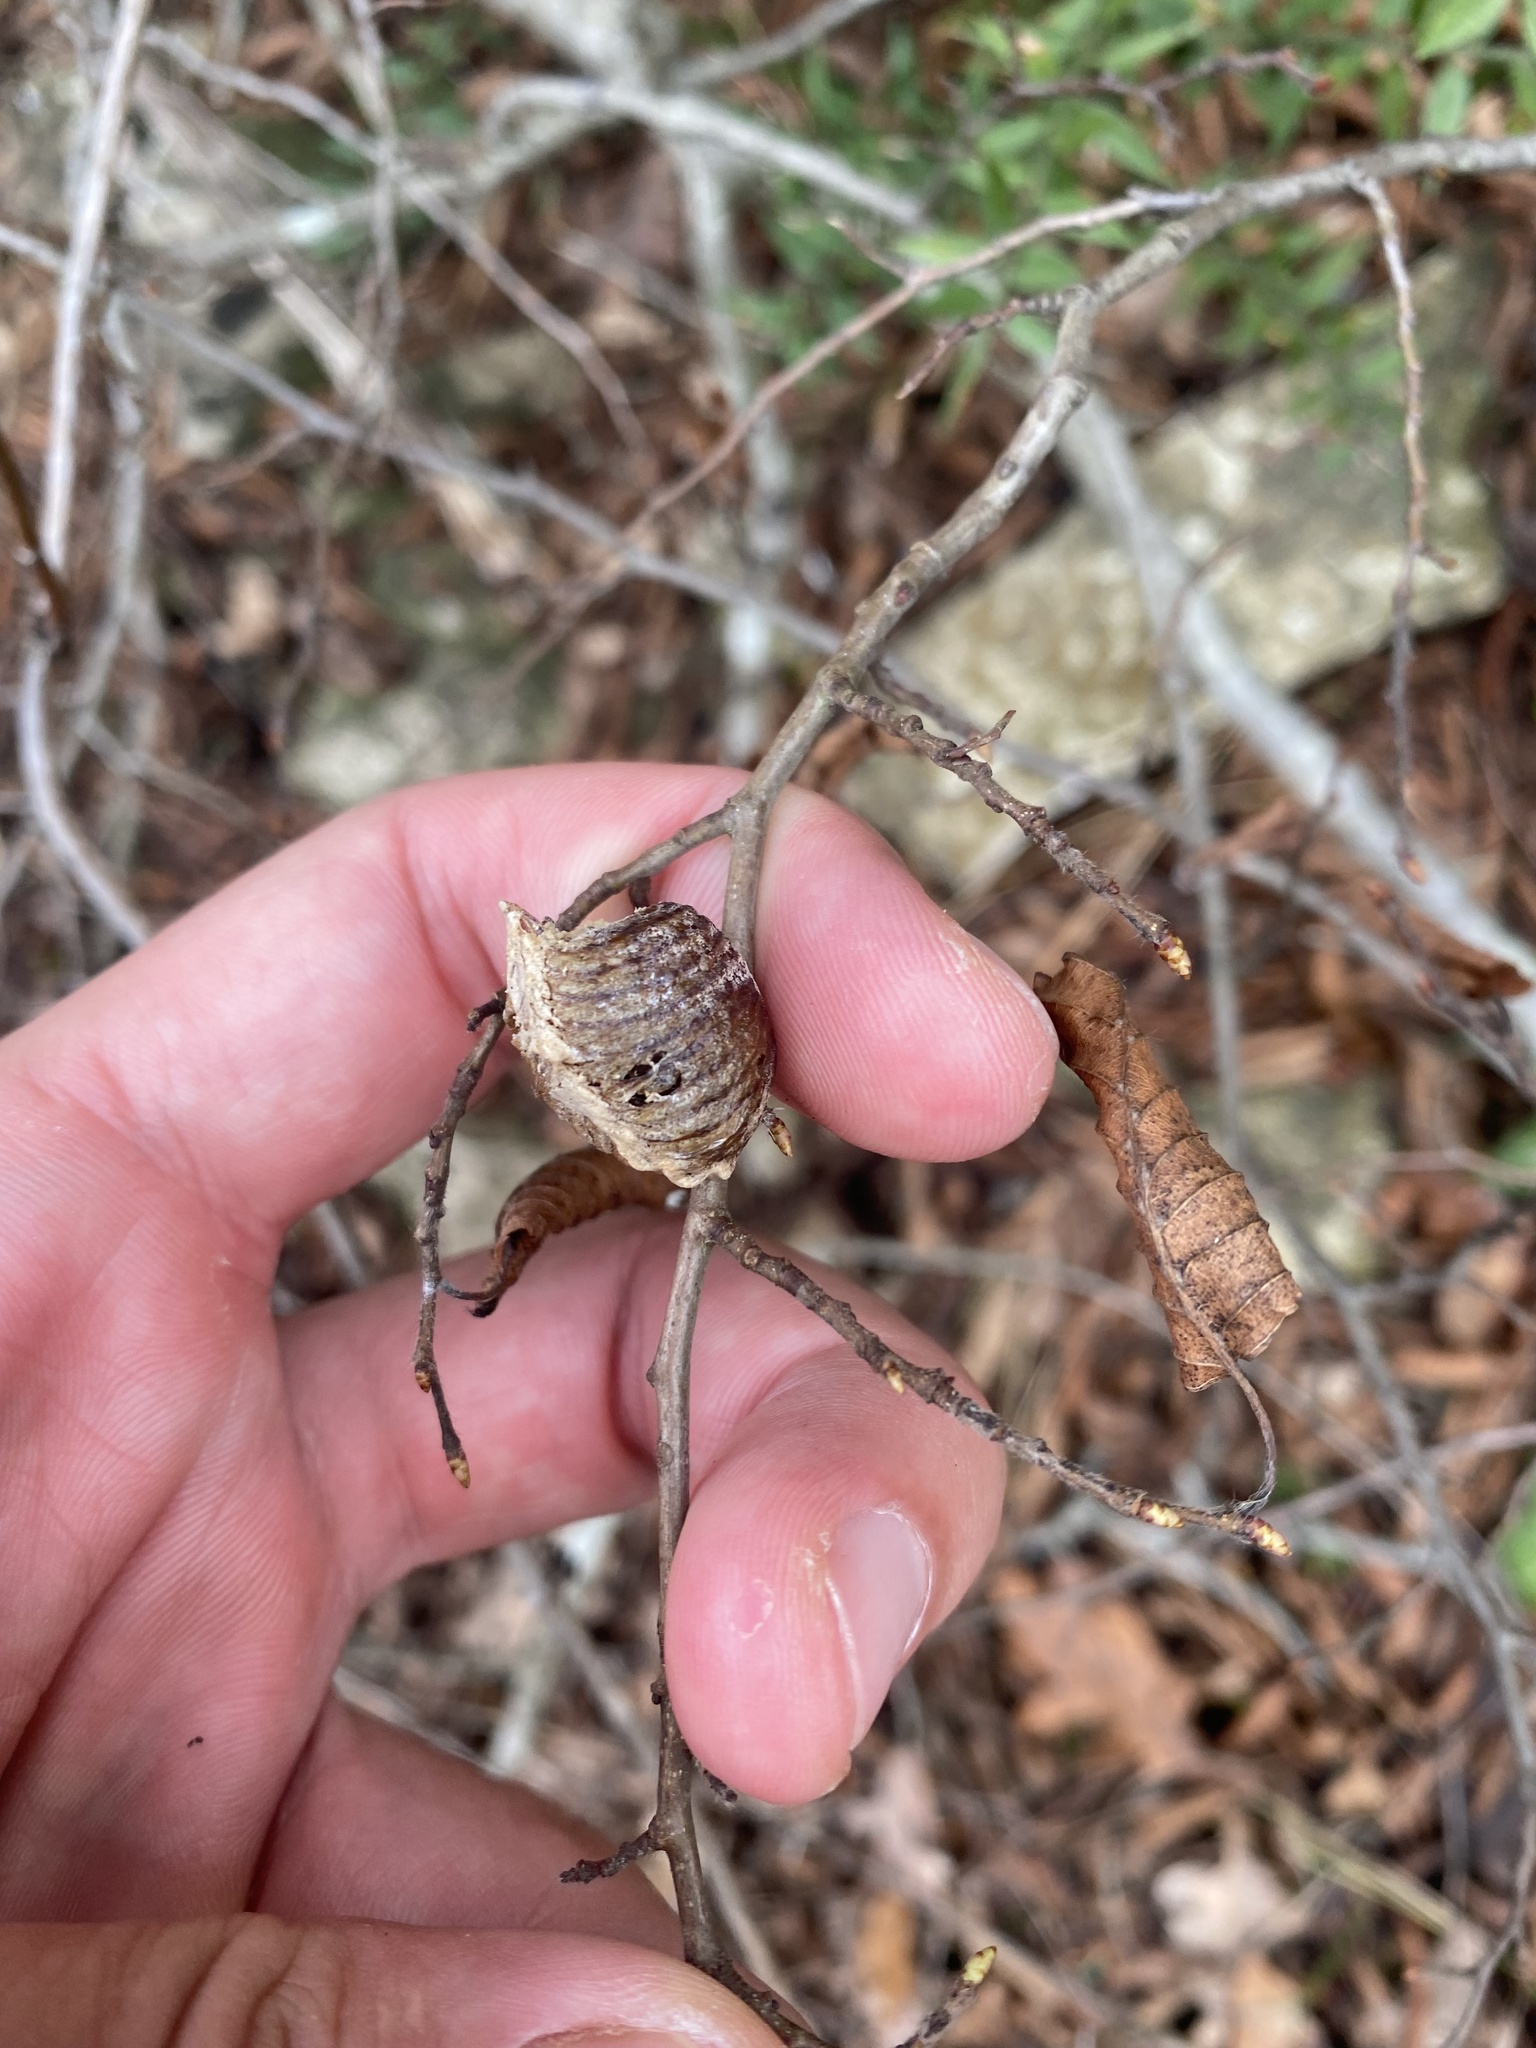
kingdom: Animalia
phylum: Arthropoda
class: Insecta
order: Mantodea
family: Mantidae
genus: Hierodula
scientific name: Hierodula transcaucasica
